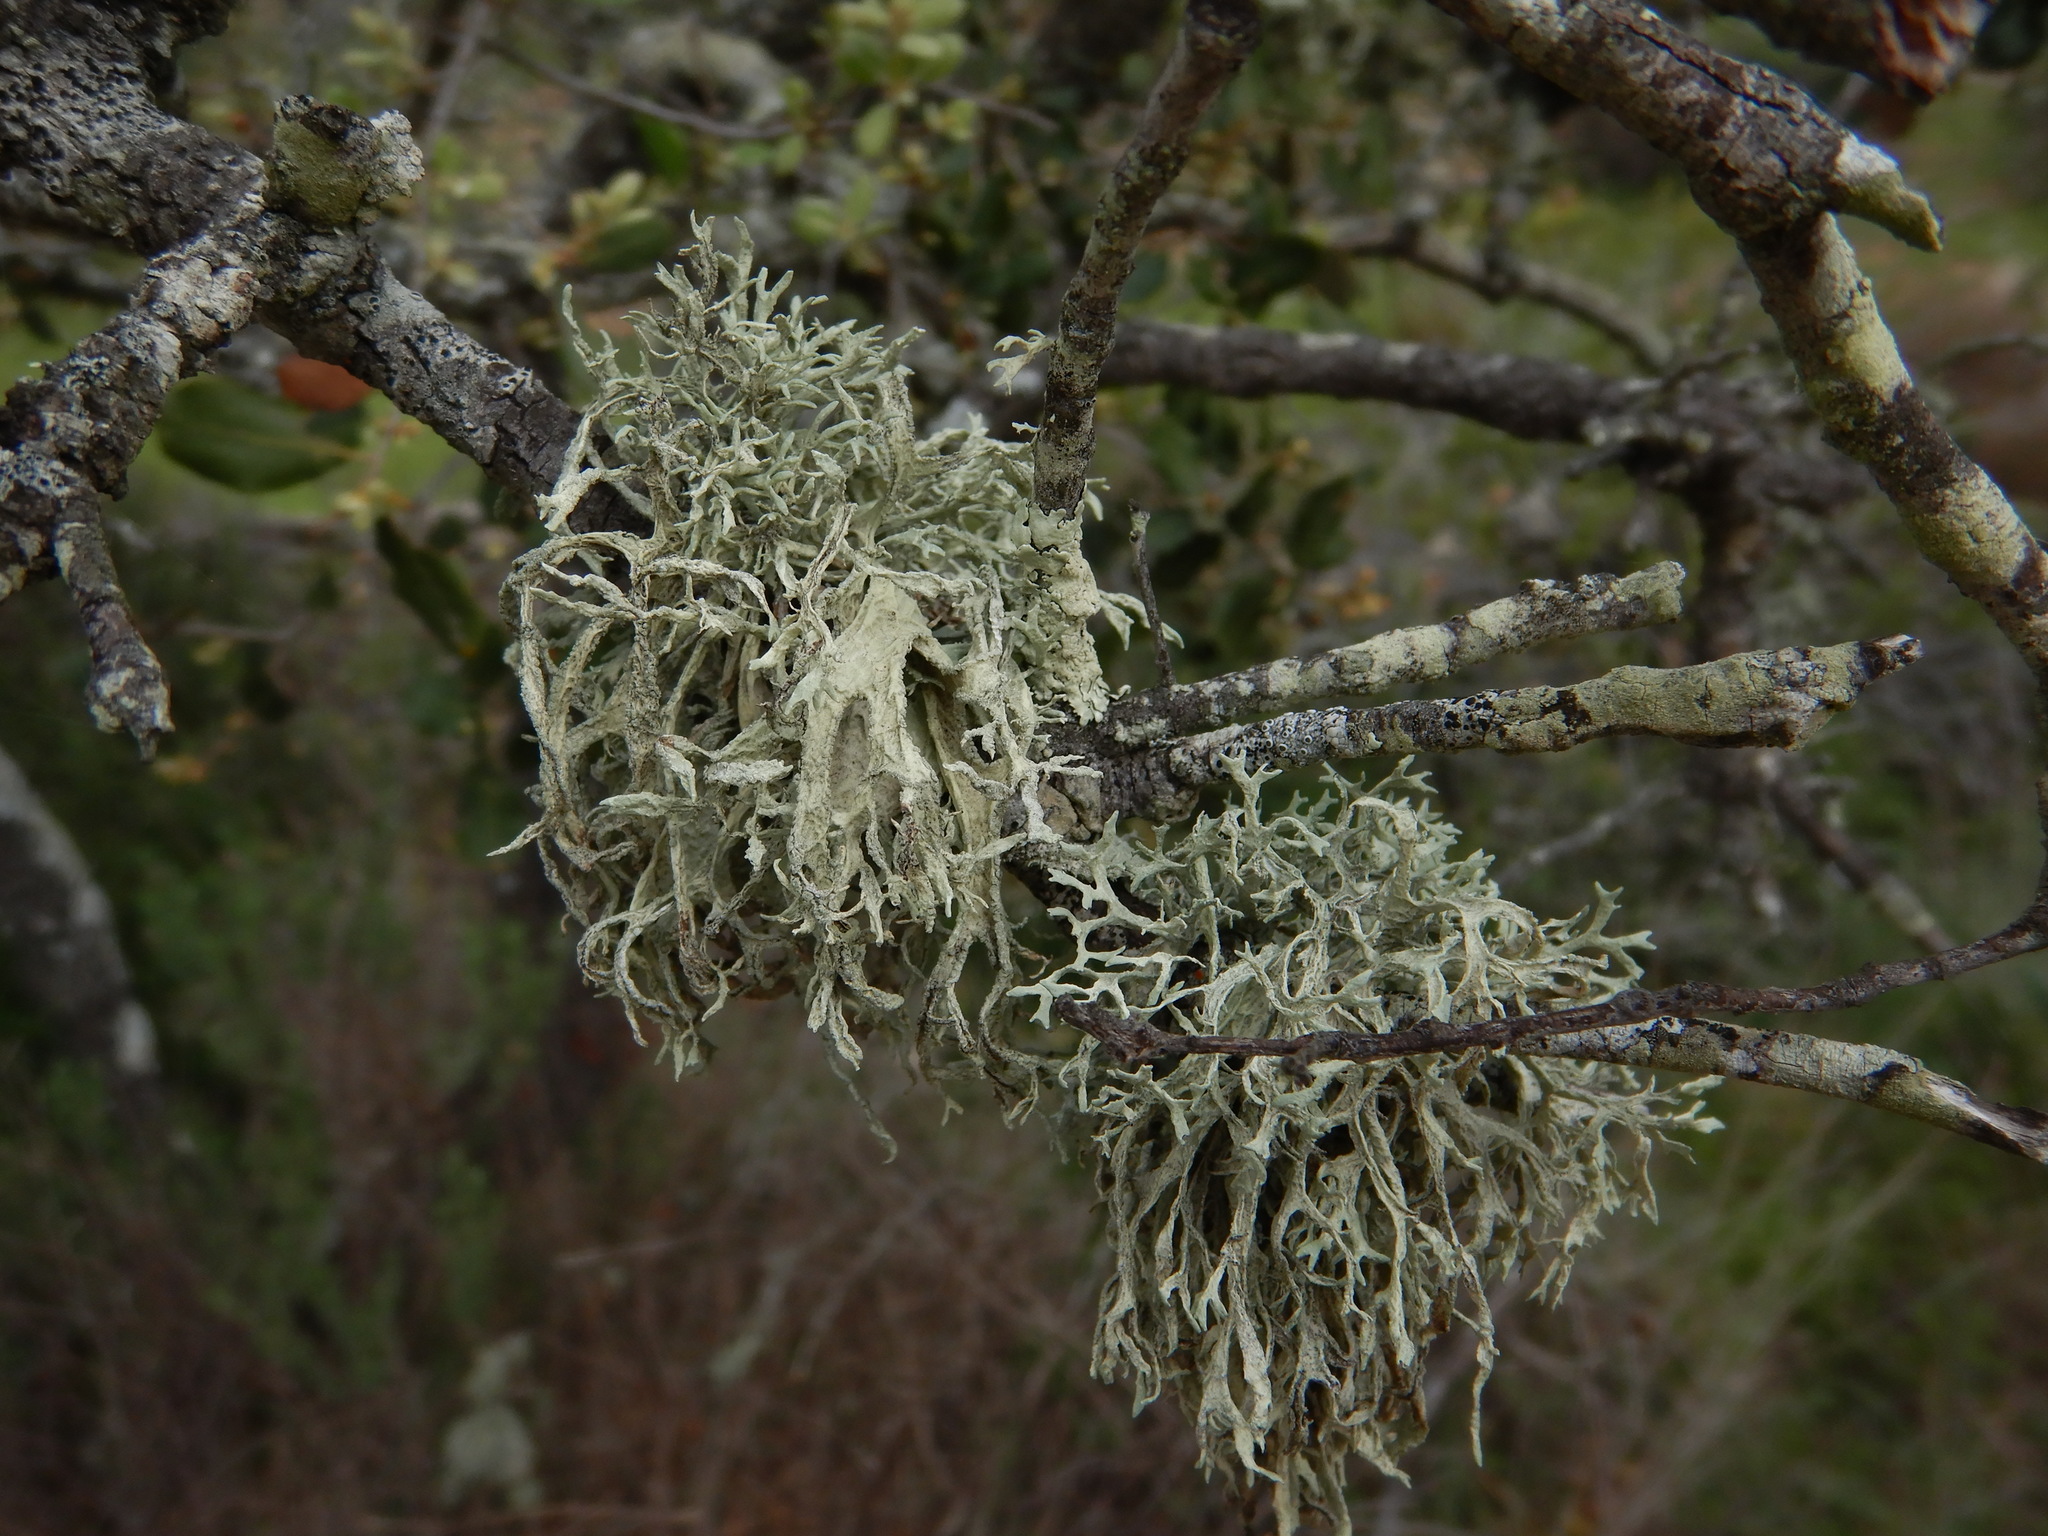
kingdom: Fungi
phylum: Ascomycota
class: Lecanoromycetes
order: Lecanorales
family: Parmeliaceae
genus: Evernia
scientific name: Evernia prunastri
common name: Oak moss
